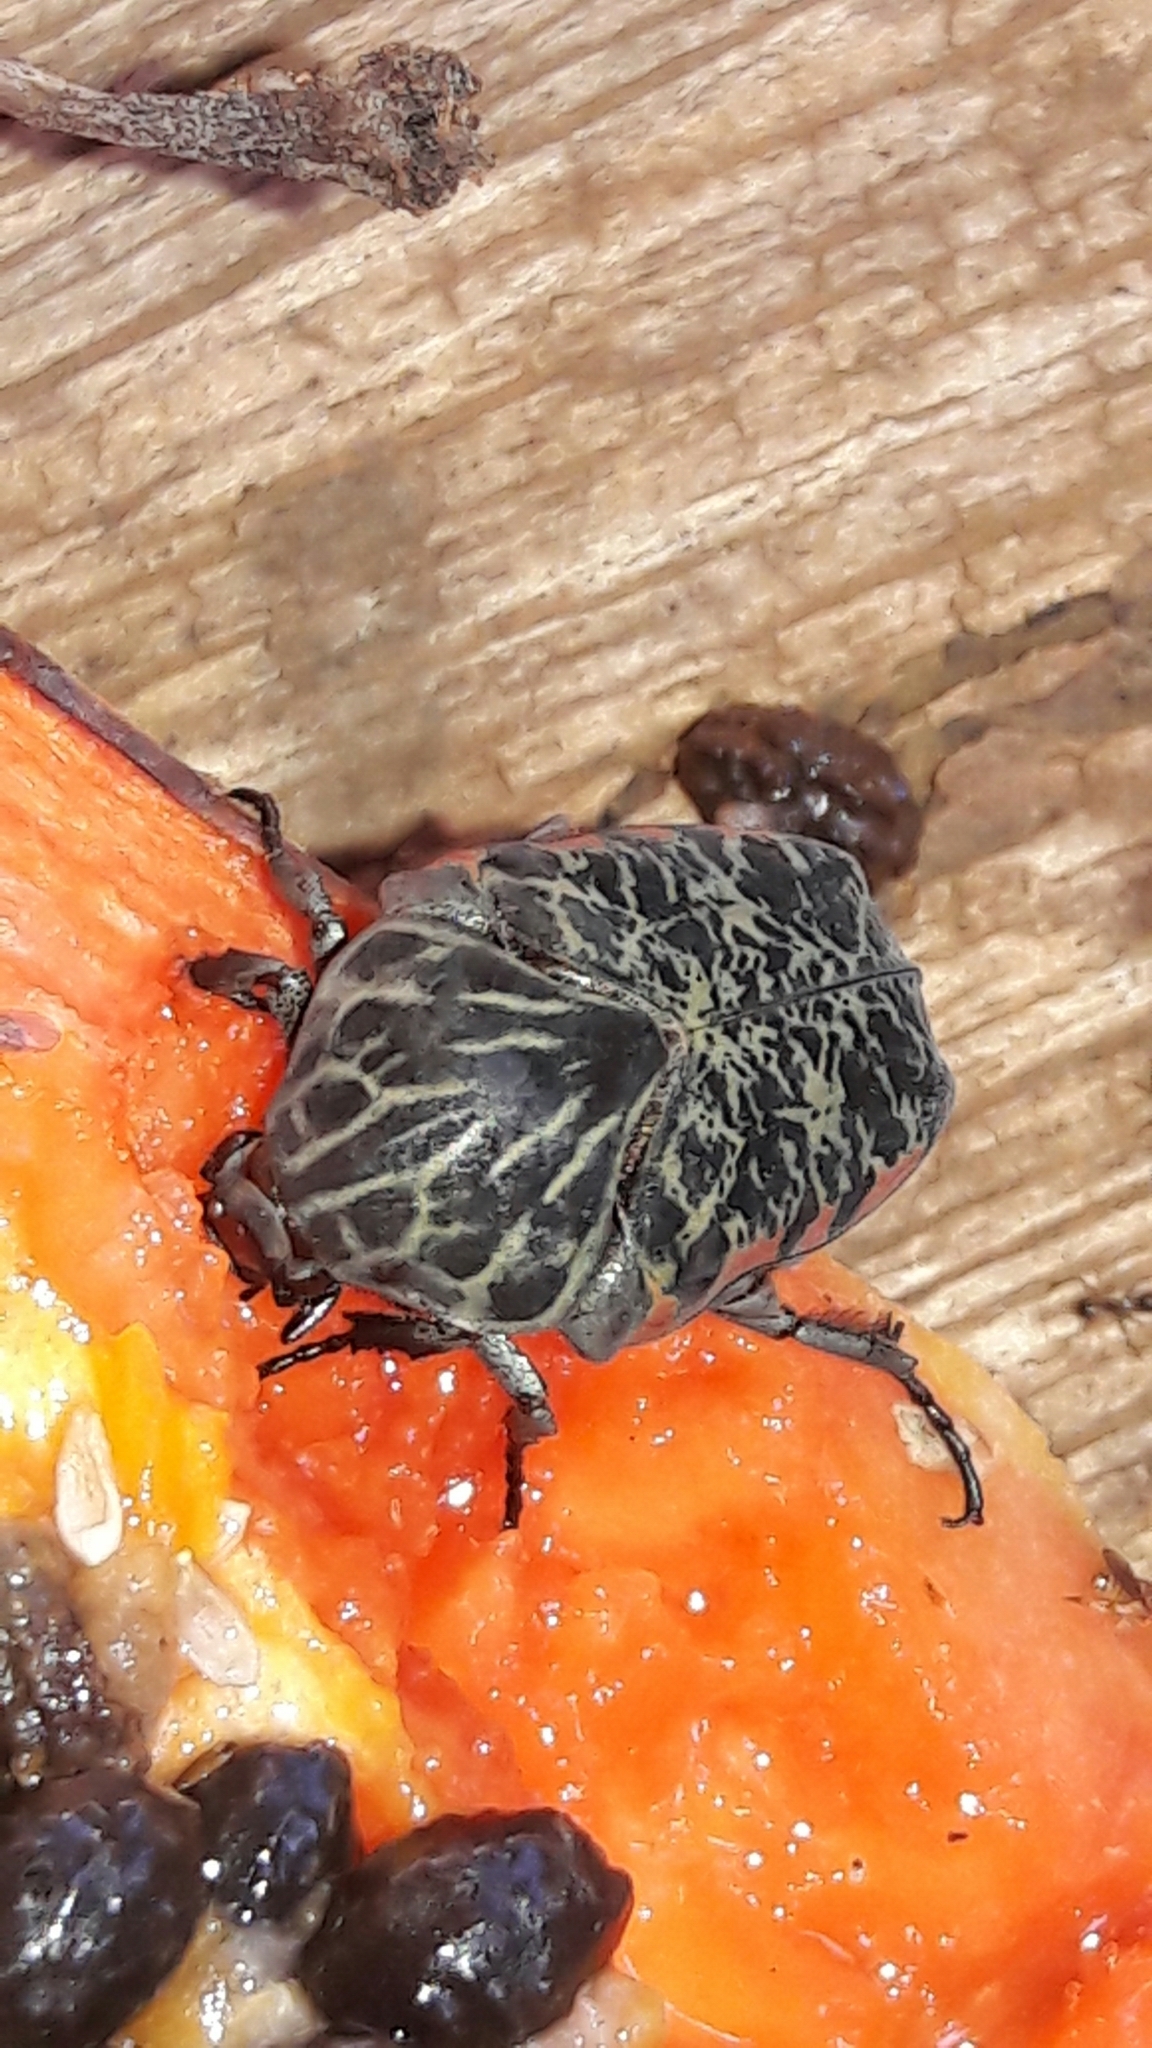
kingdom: Animalia
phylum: Arthropoda
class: Insecta
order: Coleoptera
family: Scarabaeidae
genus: Gymnetis
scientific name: Gymnetis rufilatris
